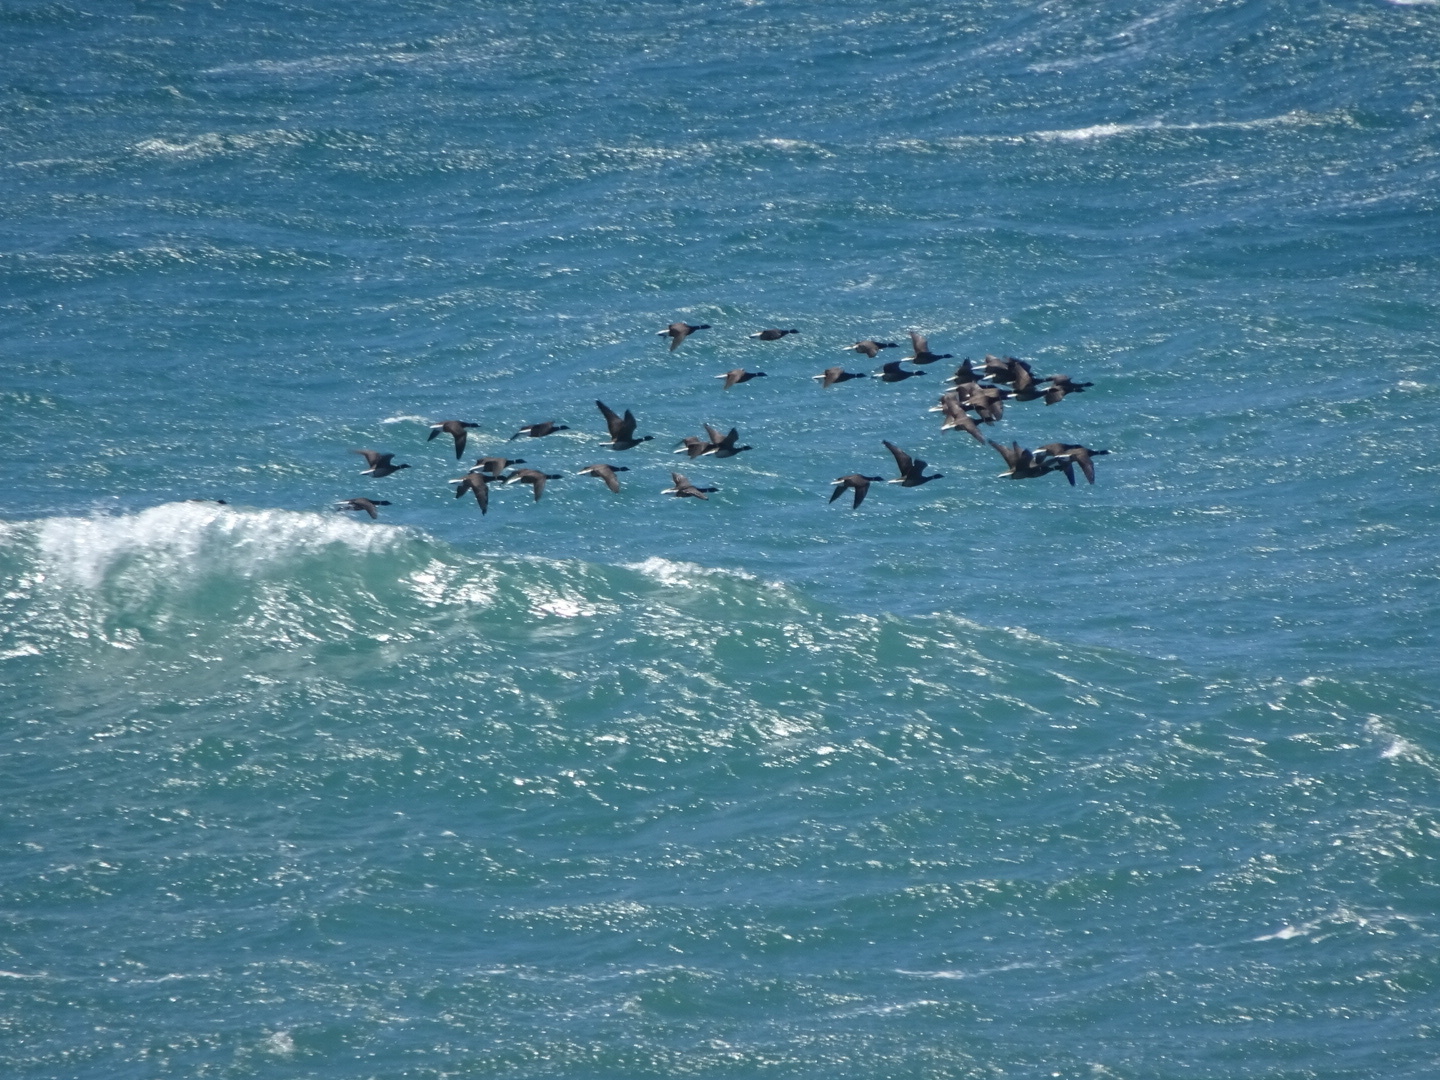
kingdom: Animalia
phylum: Chordata
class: Aves
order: Anseriformes
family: Anatidae
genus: Branta
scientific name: Branta bernicla
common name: Brant goose
